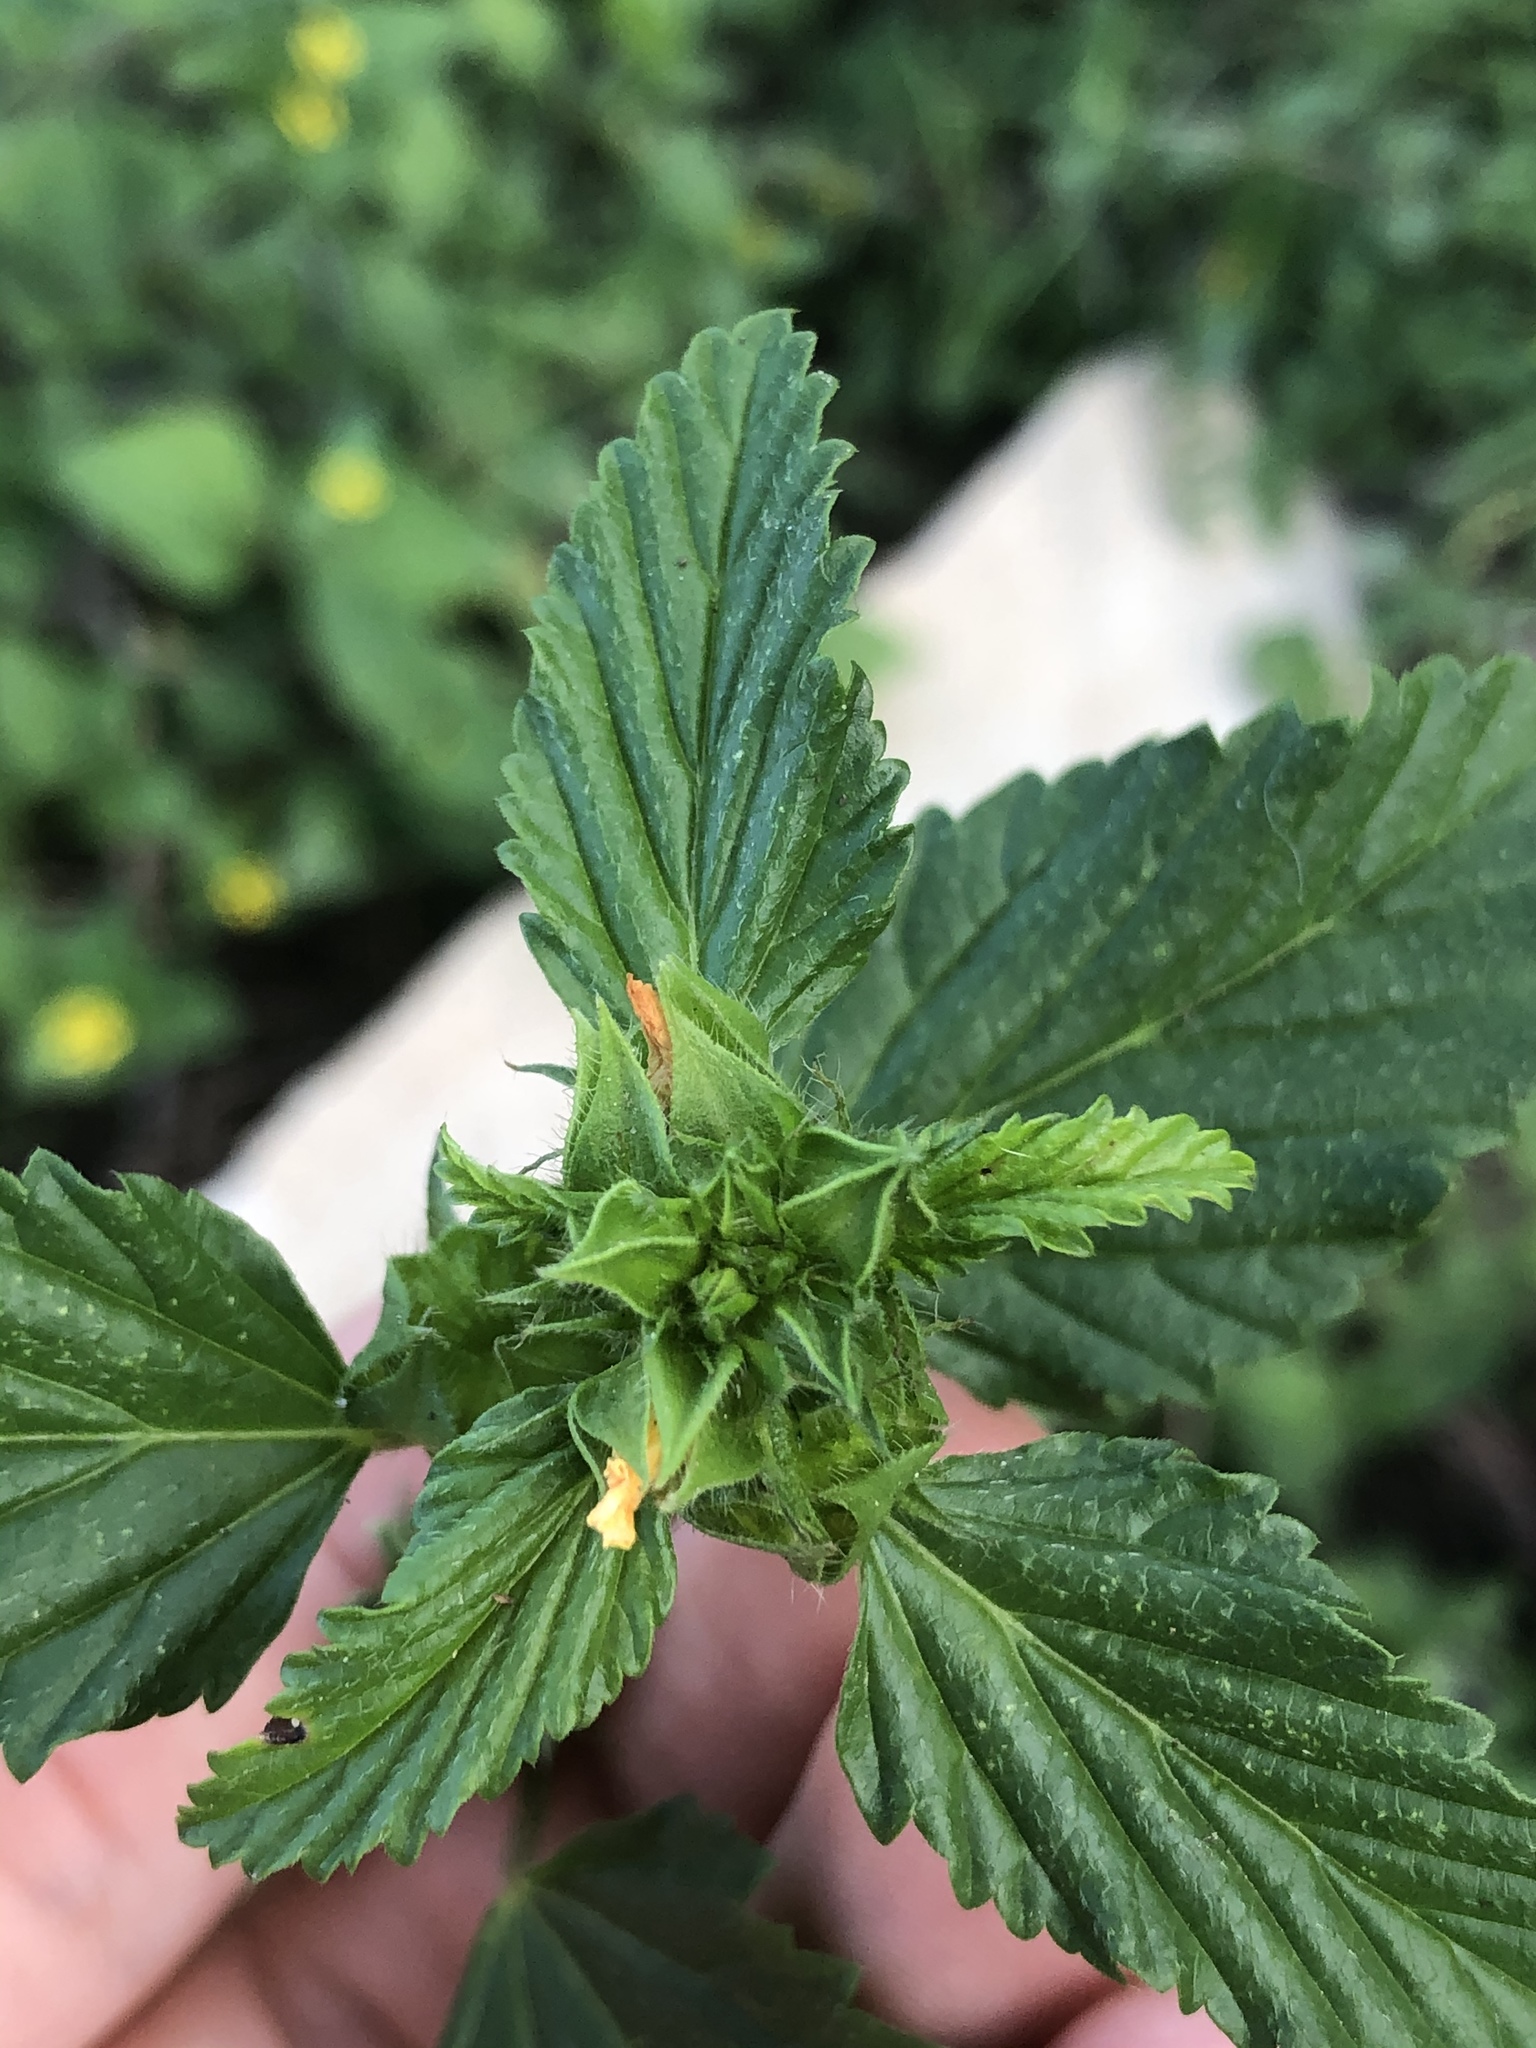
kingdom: Plantae
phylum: Tracheophyta
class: Magnoliopsida
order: Malvales
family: Malvaceae
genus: Malvastrum
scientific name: Malvastrum coromandelianum
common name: Threelobe false mallow
